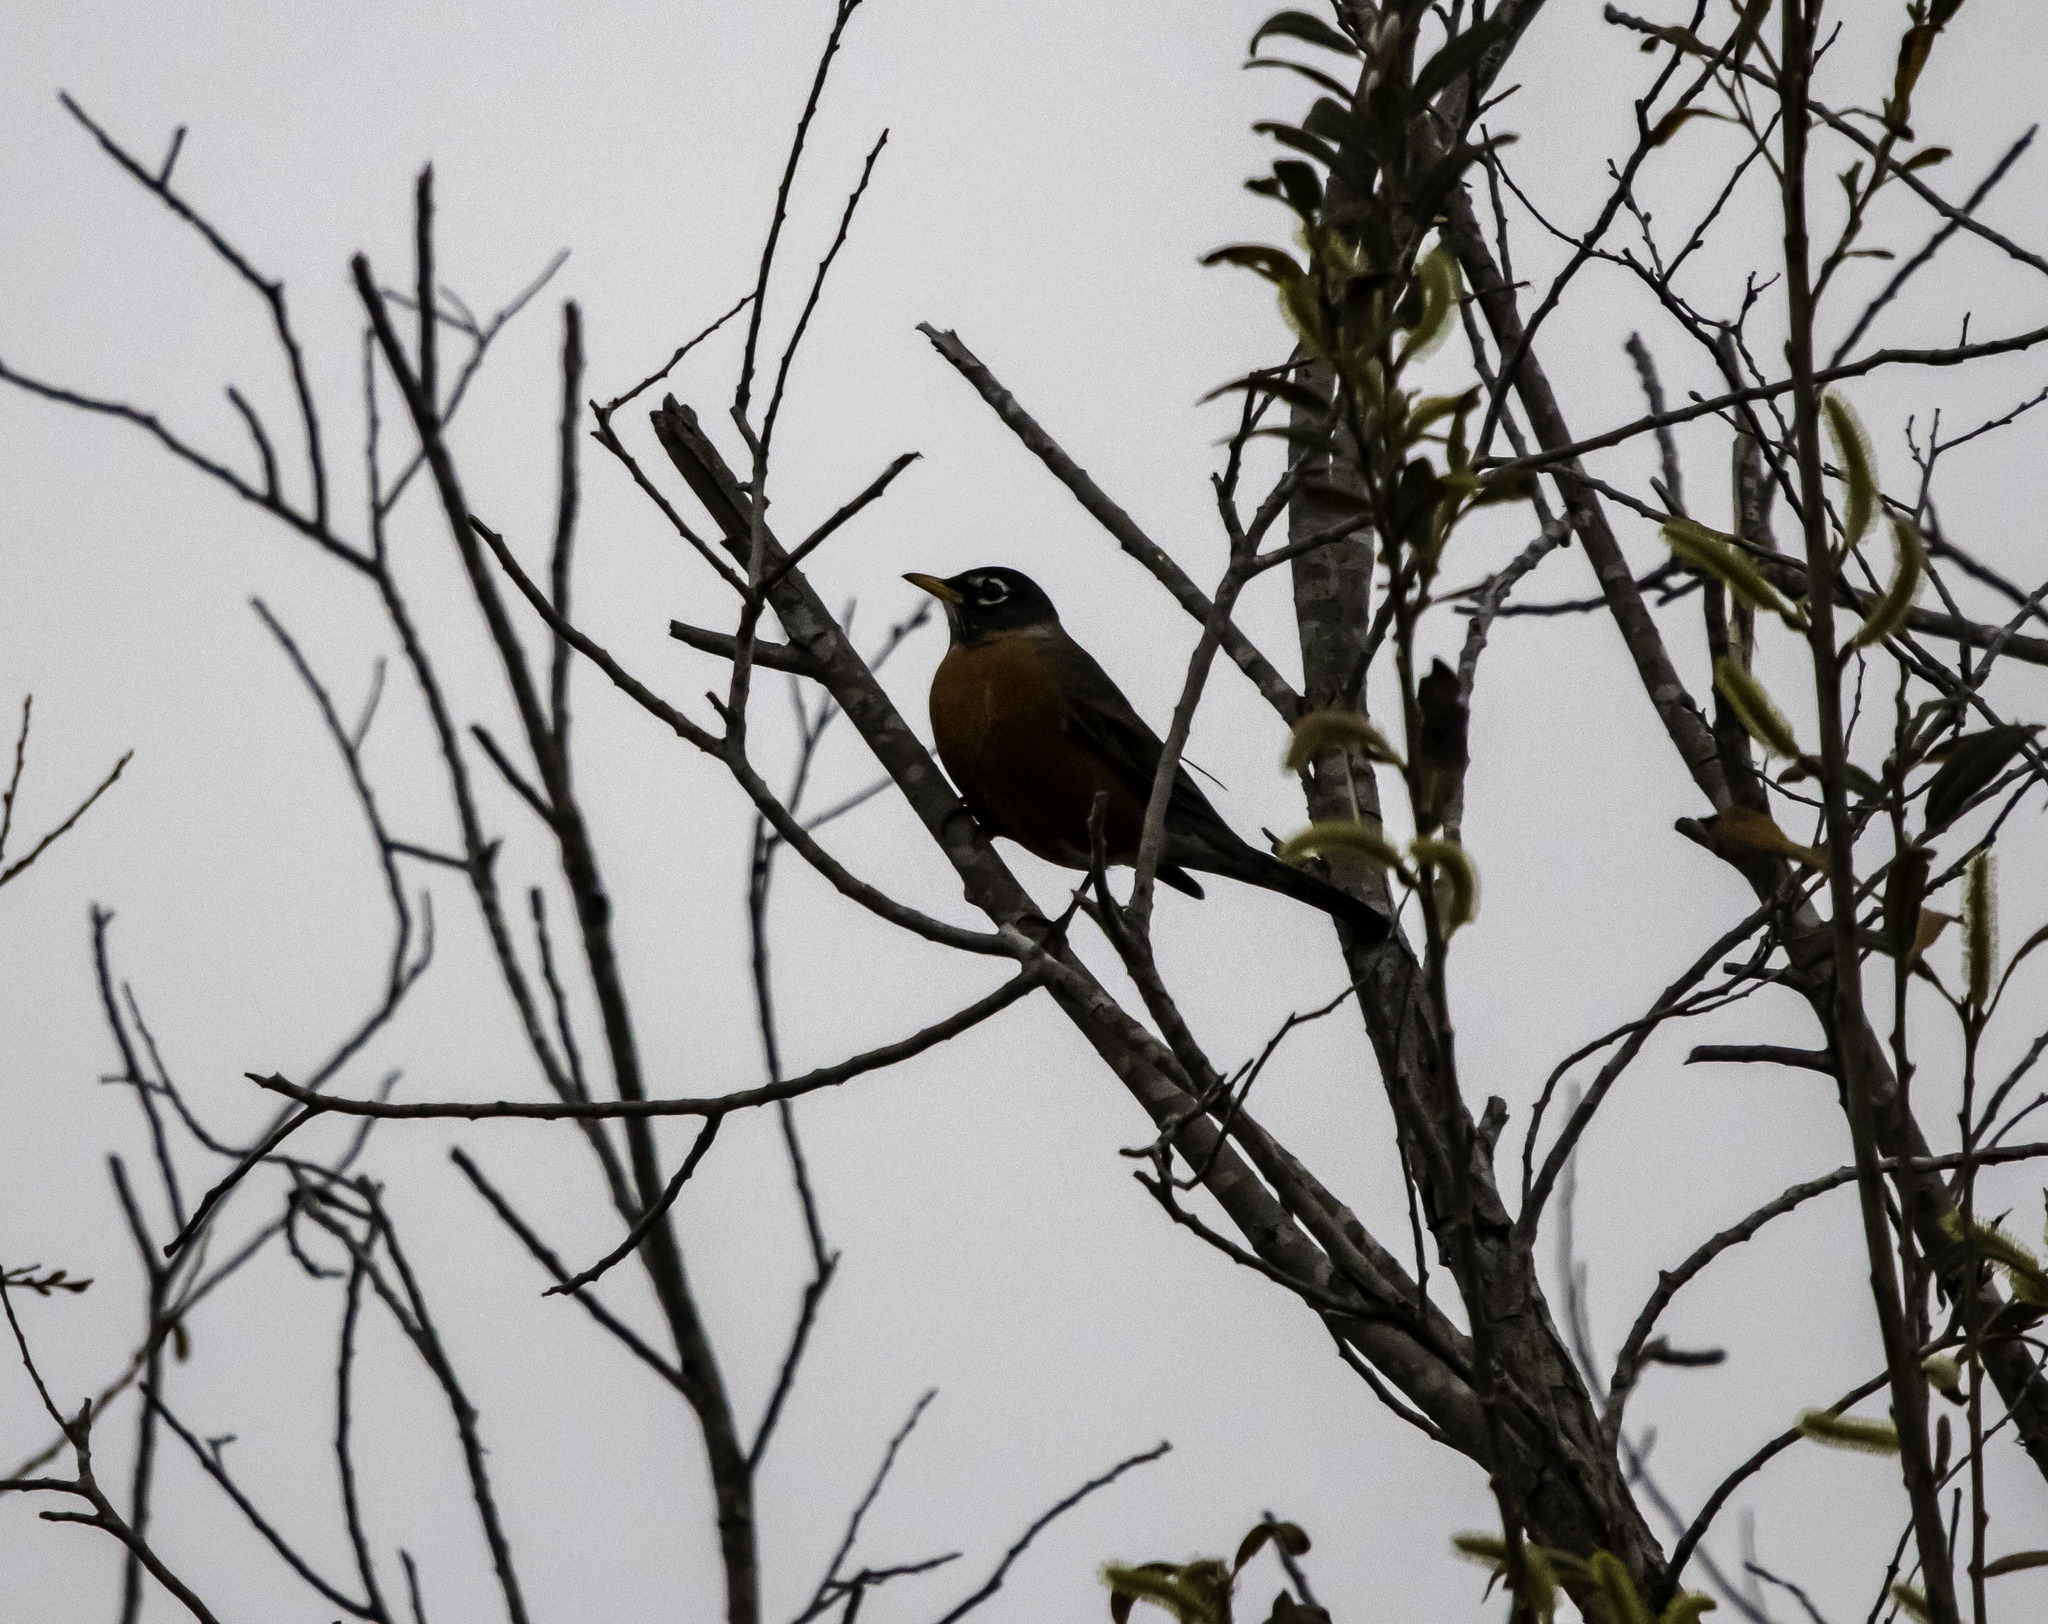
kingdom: Animalia
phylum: Chordata
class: Aves
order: Passeriformes
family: Turdidae
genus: Turdus
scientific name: Turdus migratorius
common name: American robin
